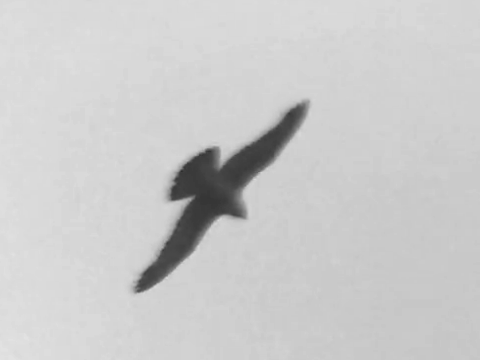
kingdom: Animalia
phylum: Chordata
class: Aves
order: Falconiformes
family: Falconidae
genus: Falco
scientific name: Falco peregrinus
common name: Peregrine falcon
